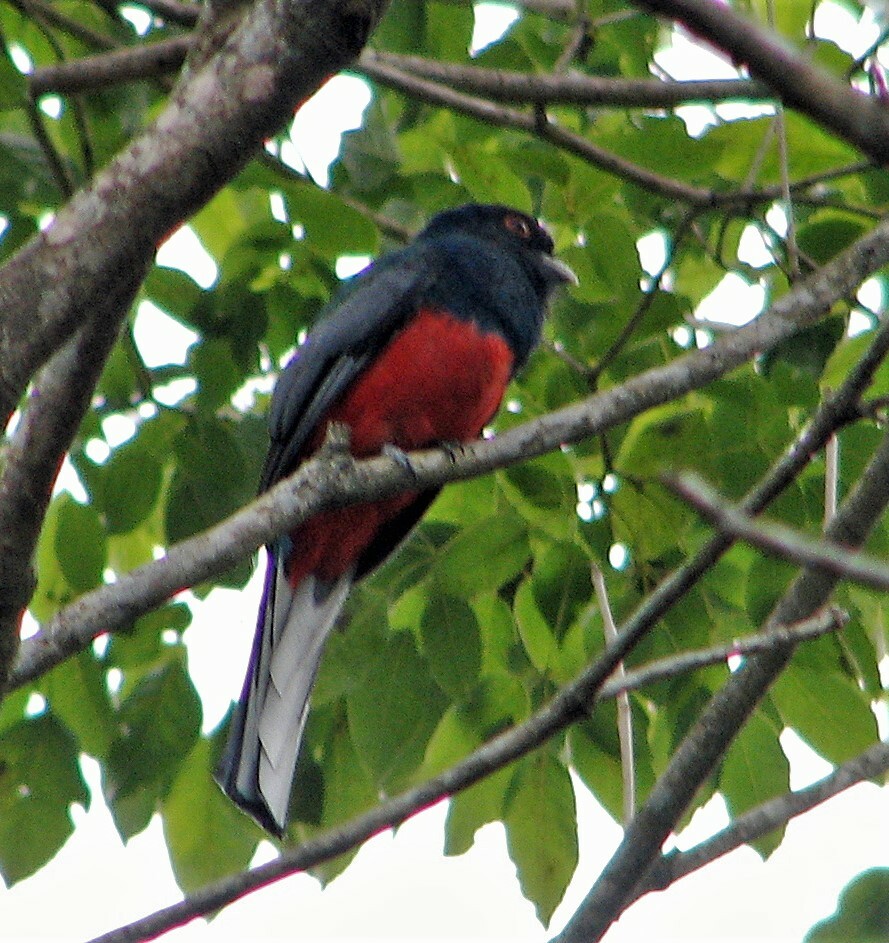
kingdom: Animalia
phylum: Chordata
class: Aves
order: Trogoniformes
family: Trogonidae
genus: Trogon
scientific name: Trogon surrucura
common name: Surucua trogon
